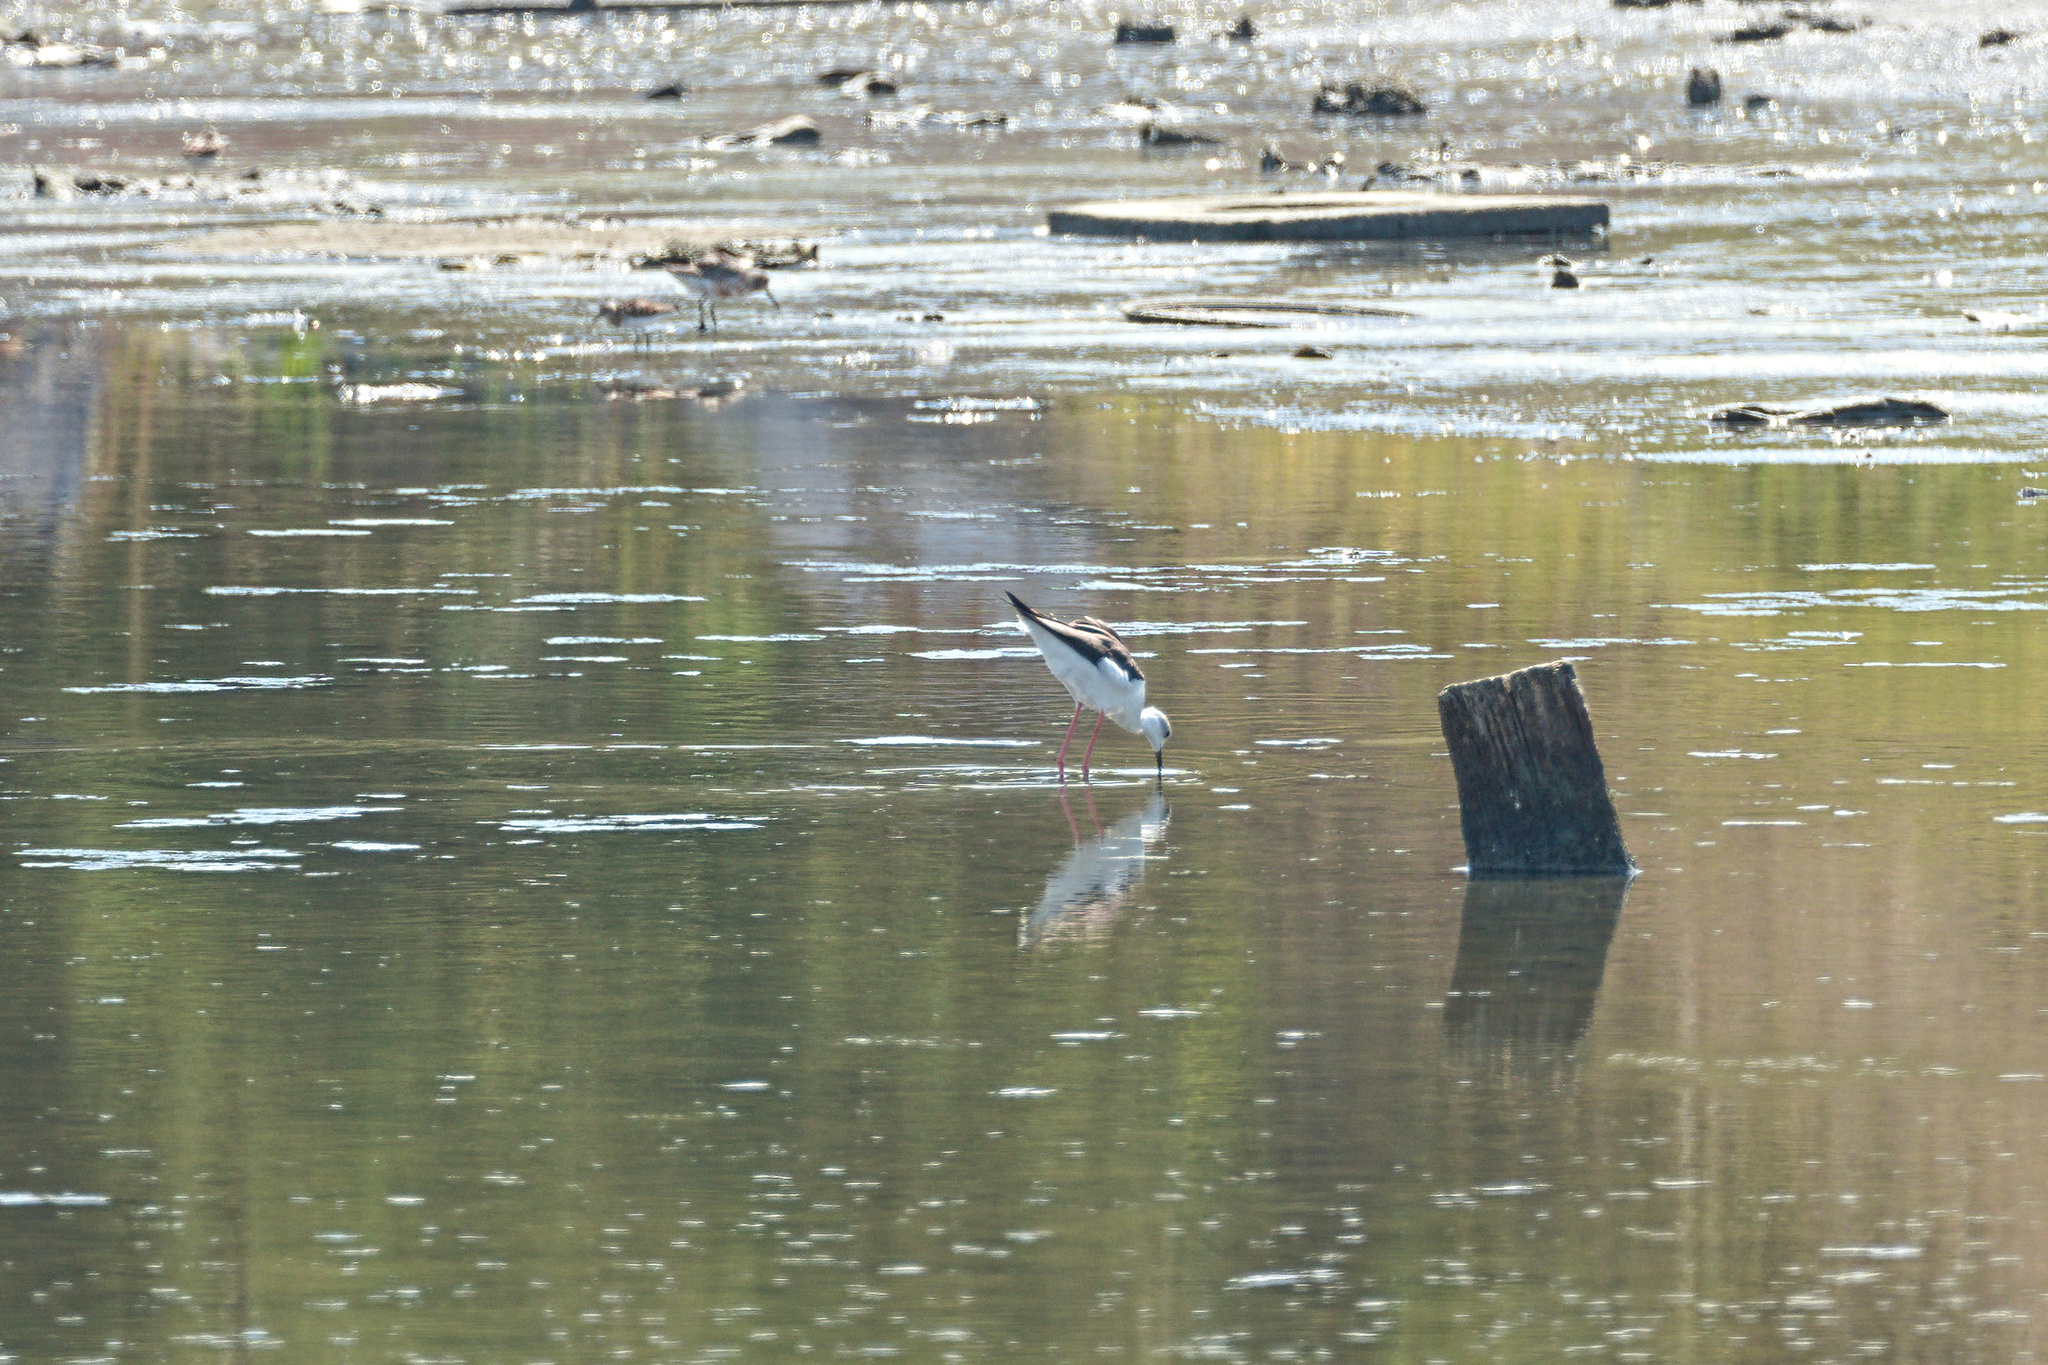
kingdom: Animalia
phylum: Chordata
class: Aves
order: Charadriiformes
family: Recurvirostridae
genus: Himantopus
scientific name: Himantopus himantopus
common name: Black-winged stilt
